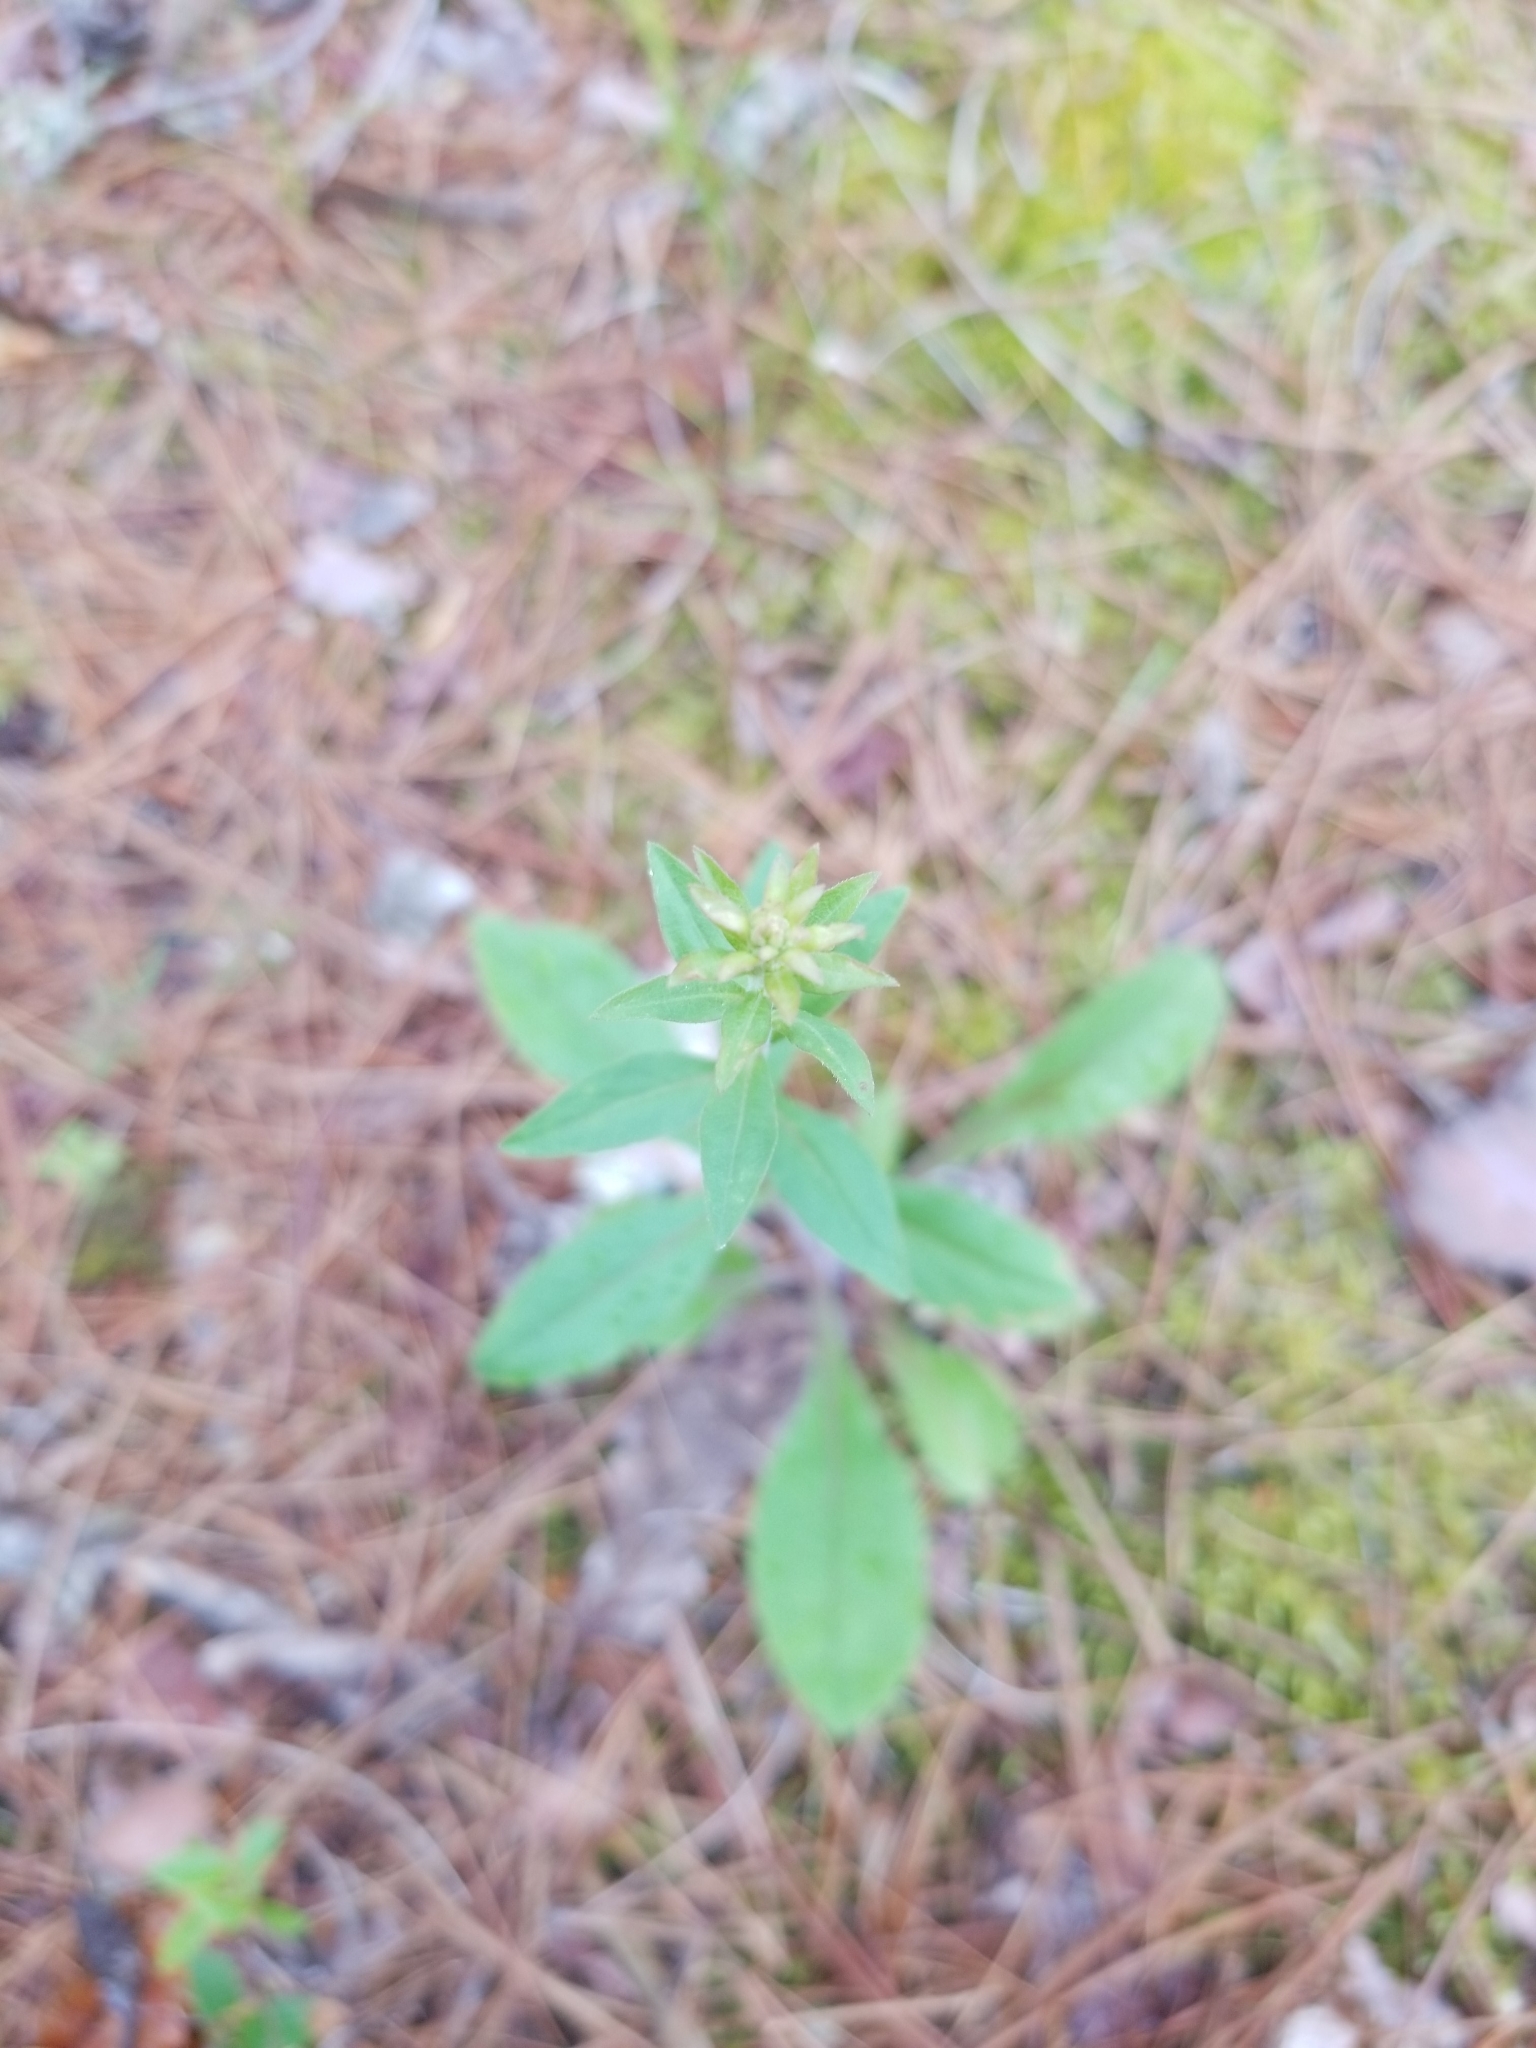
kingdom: Plantae
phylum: Tracheophyta
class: Magnoliopsida
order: Asterales
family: Asteraceae
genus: Solidago
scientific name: Solidago hispida
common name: Hairy goldenrod
